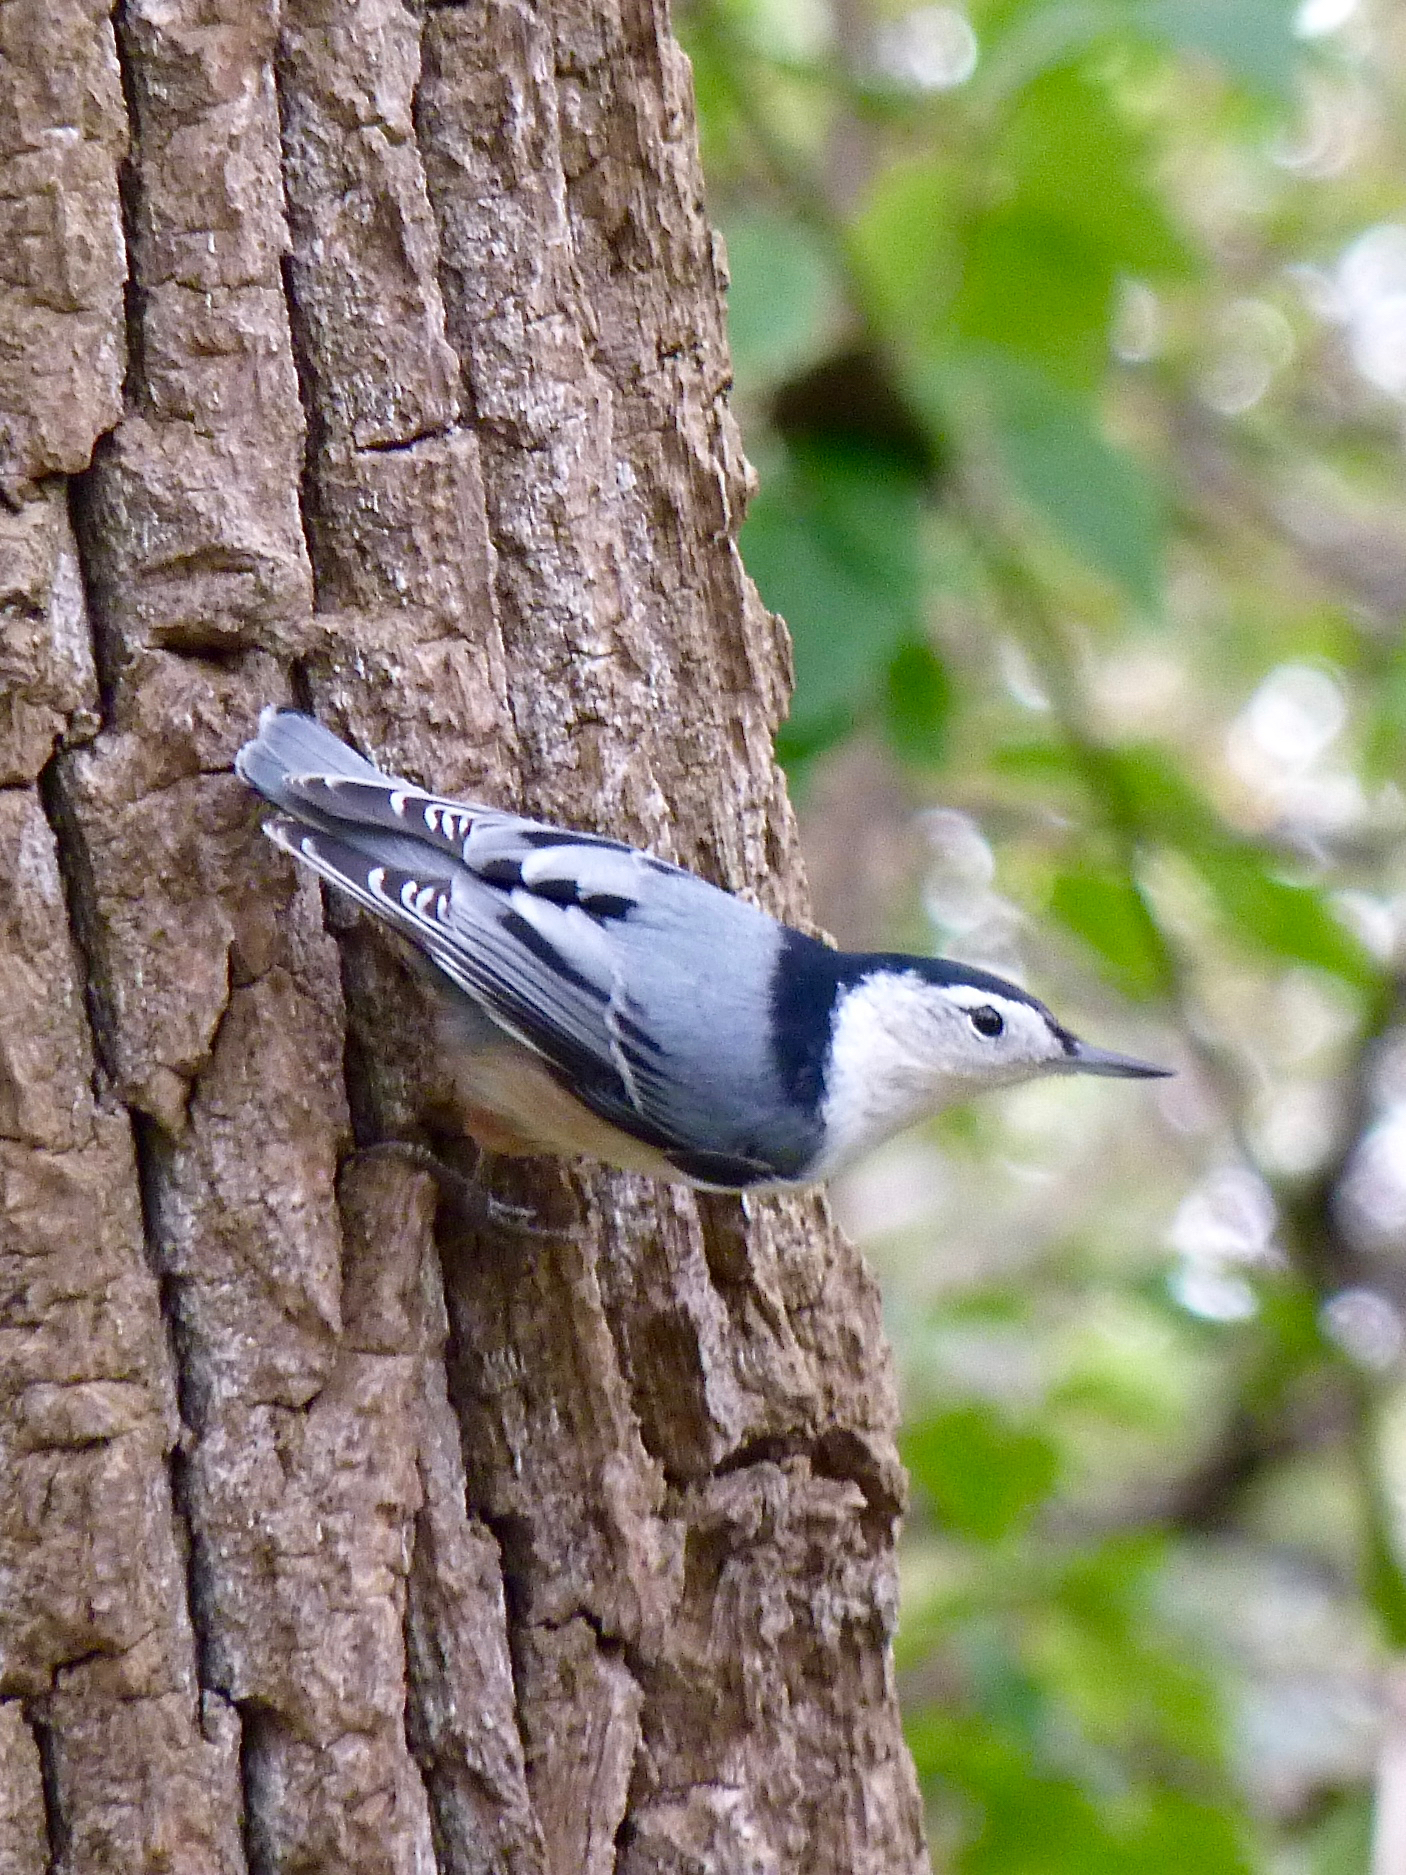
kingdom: Animalia
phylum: Chordata
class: Aves
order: Passeriformes
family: Sittidae
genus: Sitta
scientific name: Sitta carolinensis
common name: White-breasted nuthatch
